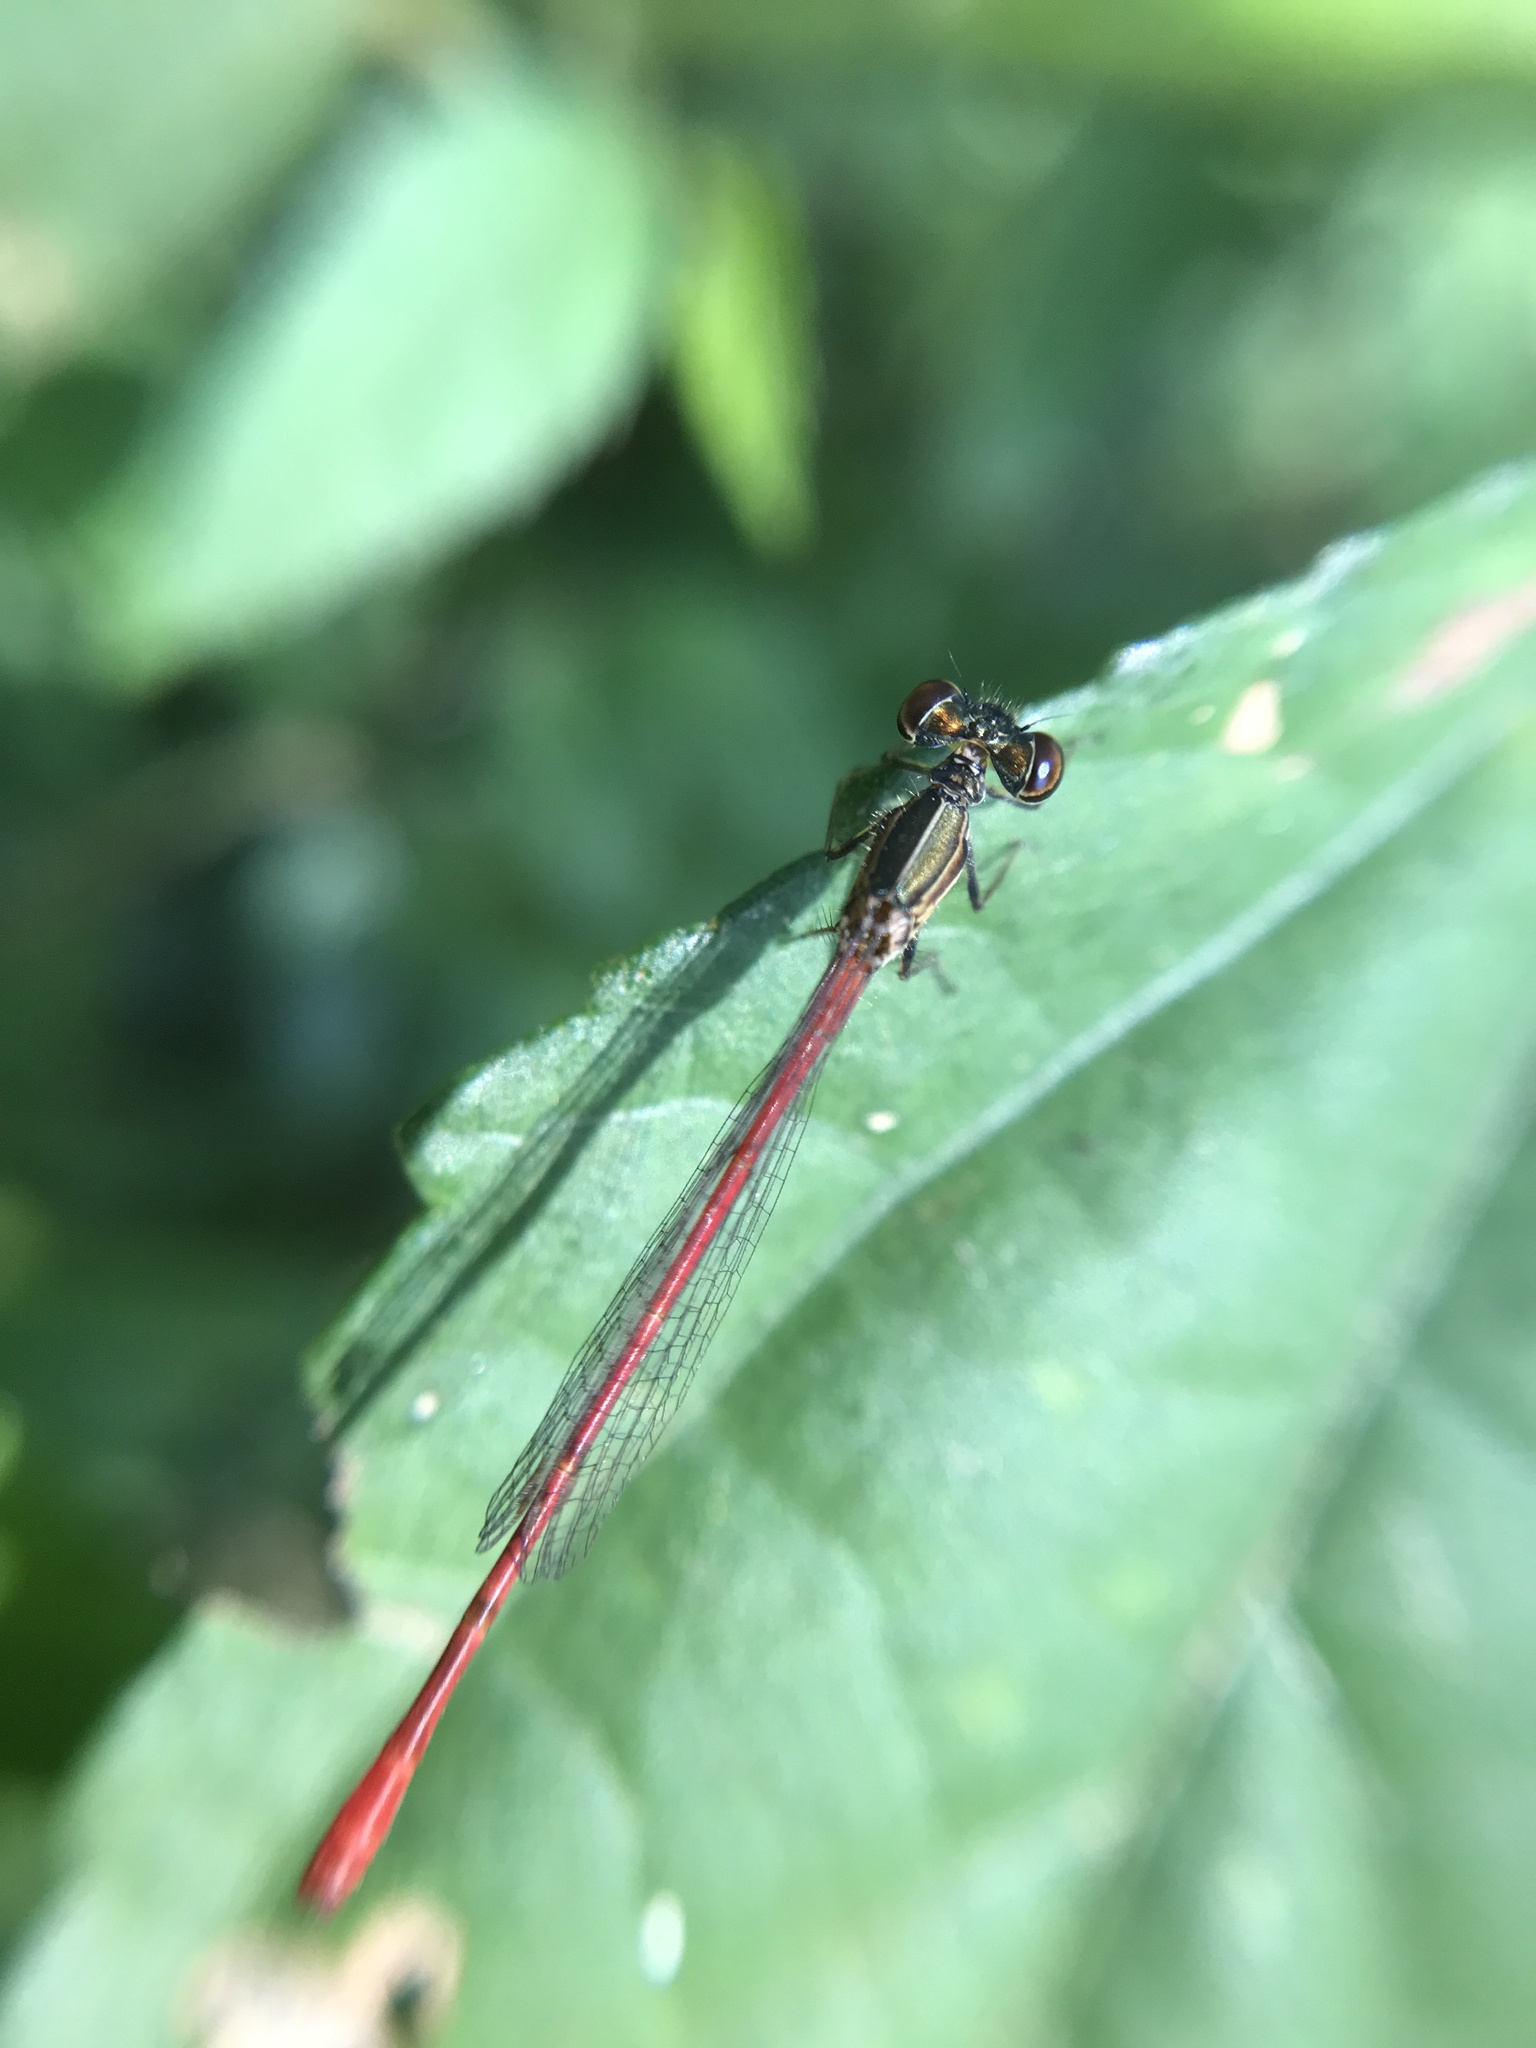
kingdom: Animalia
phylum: Arthropoda
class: Insecta
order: Odonata
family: Coenagrionidae
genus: Telebasis
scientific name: Telebasis willinki
